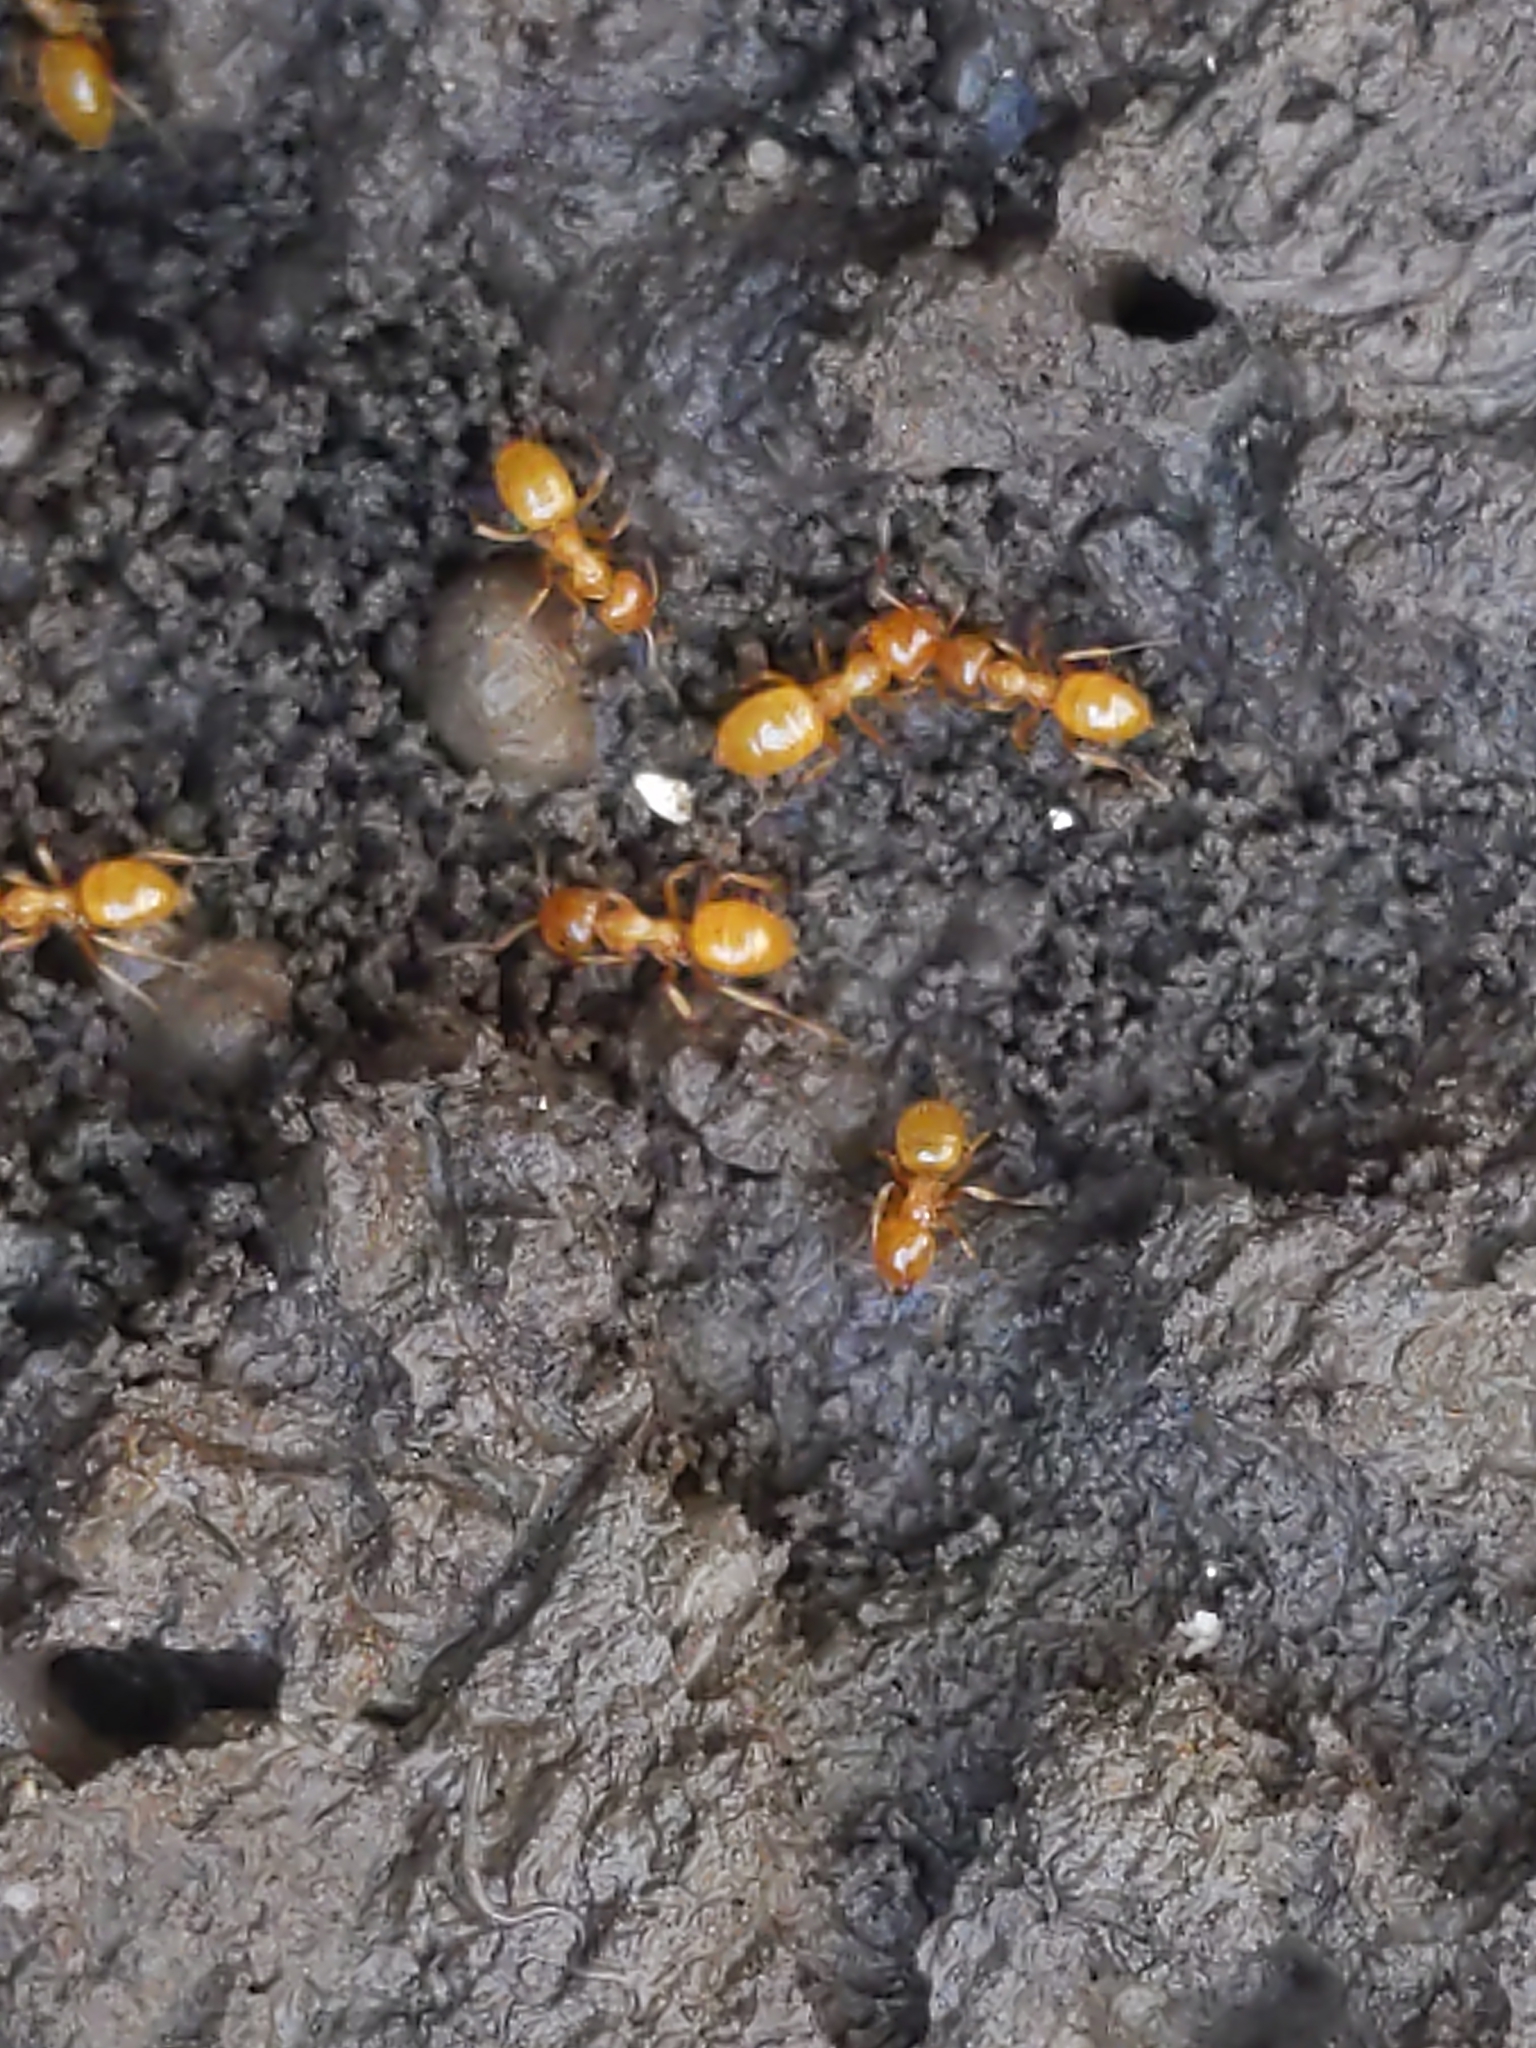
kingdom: Animalia
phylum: Arthropoda
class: Insecta
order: Hymenoptera
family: Formicidae
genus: Acanthomyops
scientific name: Acanthomyops
